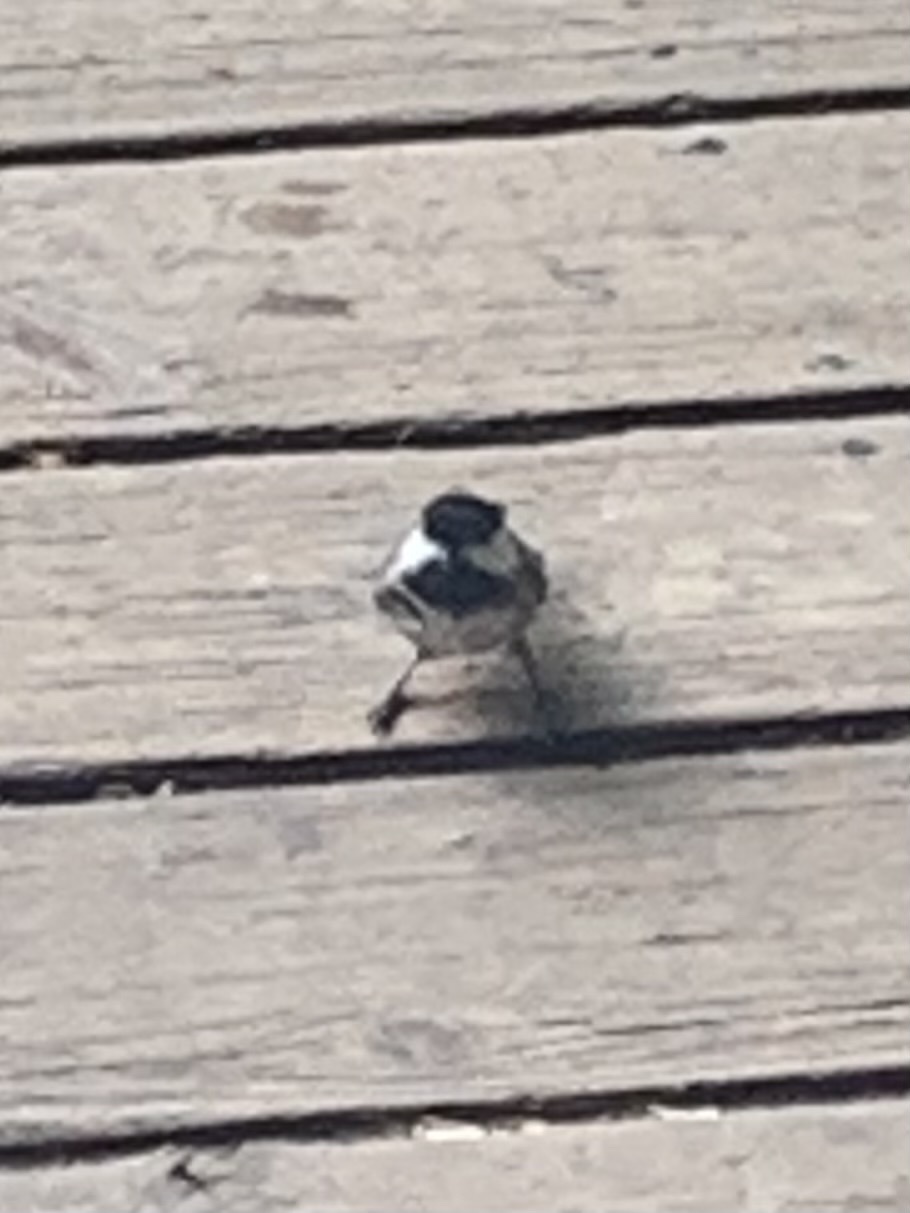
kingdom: Animalia
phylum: Chordata
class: Aves
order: Passeriformes
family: Paridae
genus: Poecile
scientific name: Poecile atricapillus
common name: Black-capped chickadee
